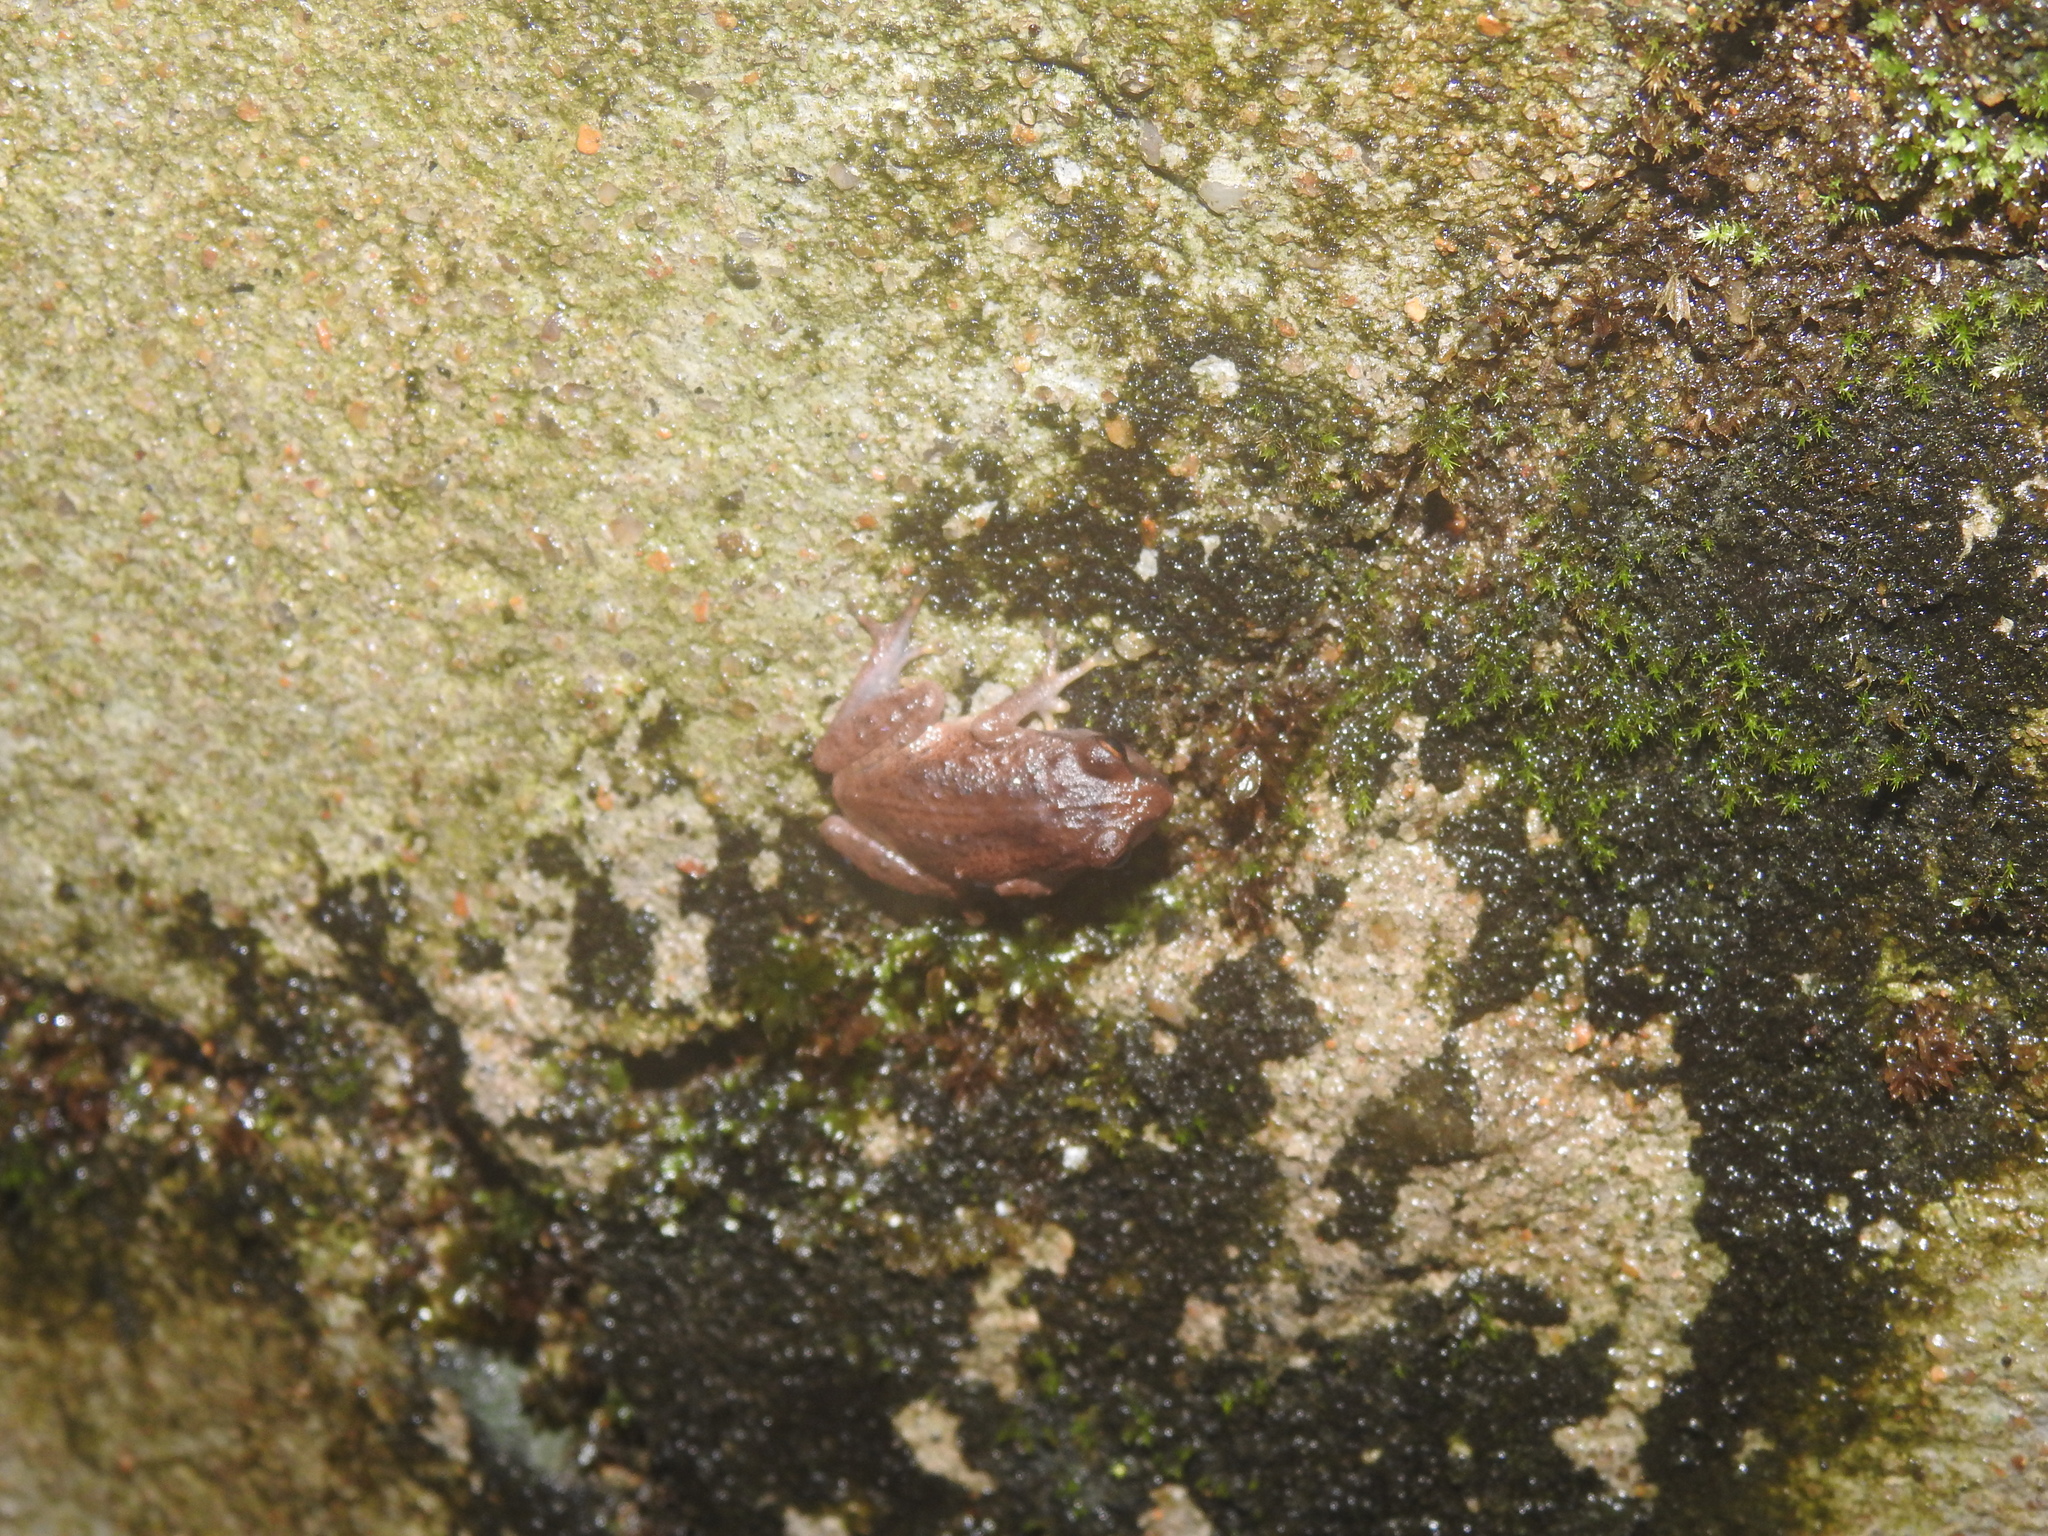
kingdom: Animalia
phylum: Chordata
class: Amphibia
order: Anura
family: Rhacophoridae
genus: Raorchestes
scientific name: Raorchestes dubois
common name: Koadaikanal bush frog
